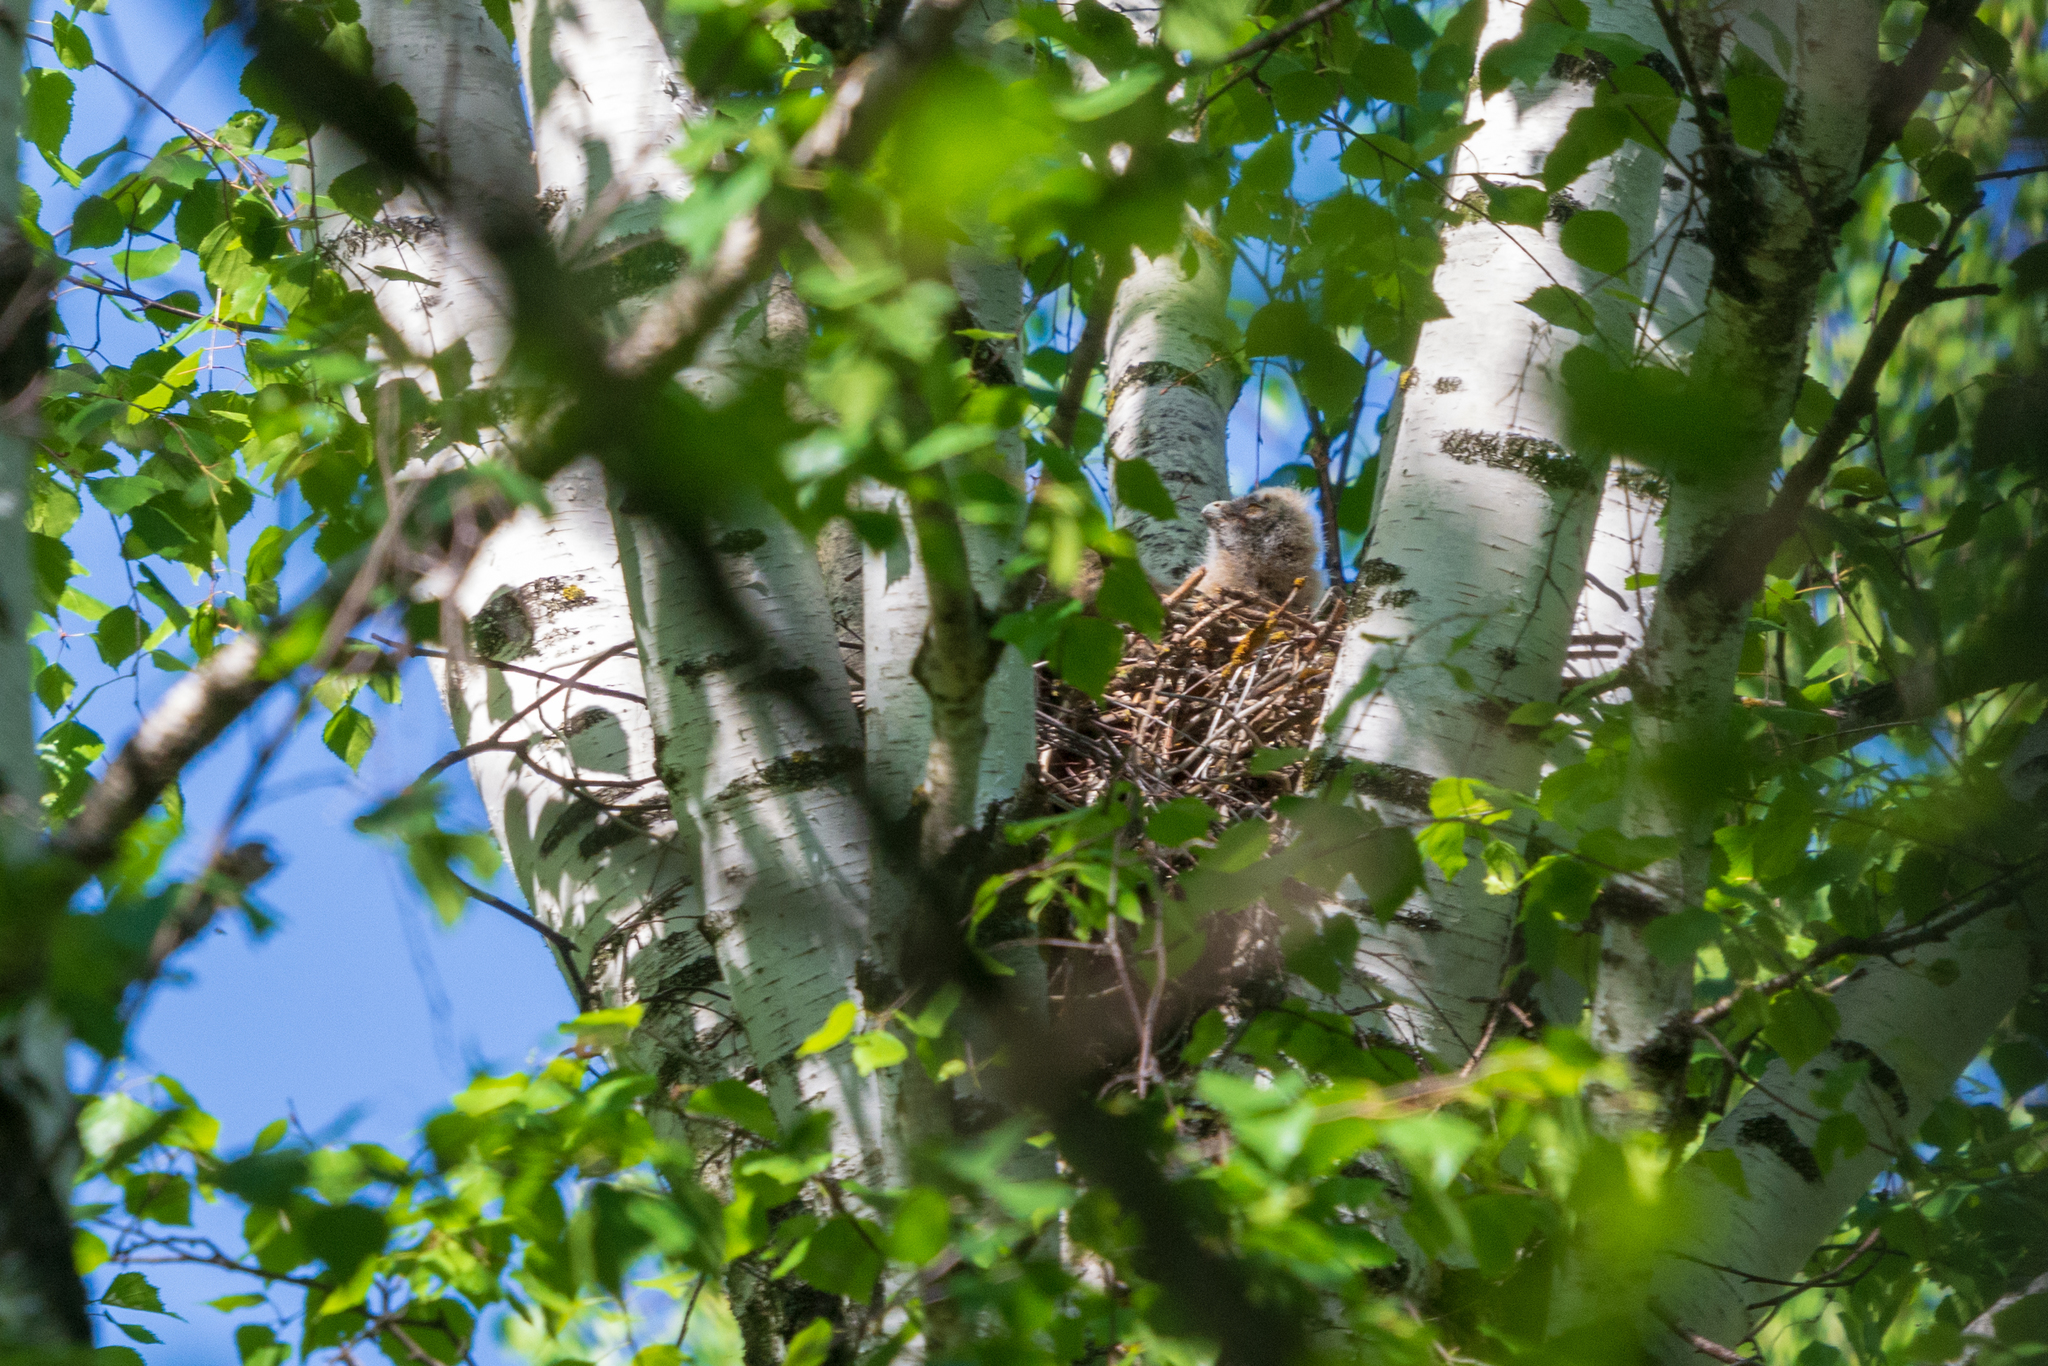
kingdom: Animalia
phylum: Chordata
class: Aves
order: Strigiformes
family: Strigidae
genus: Asio
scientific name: Asio otus
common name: Long-eared owl
